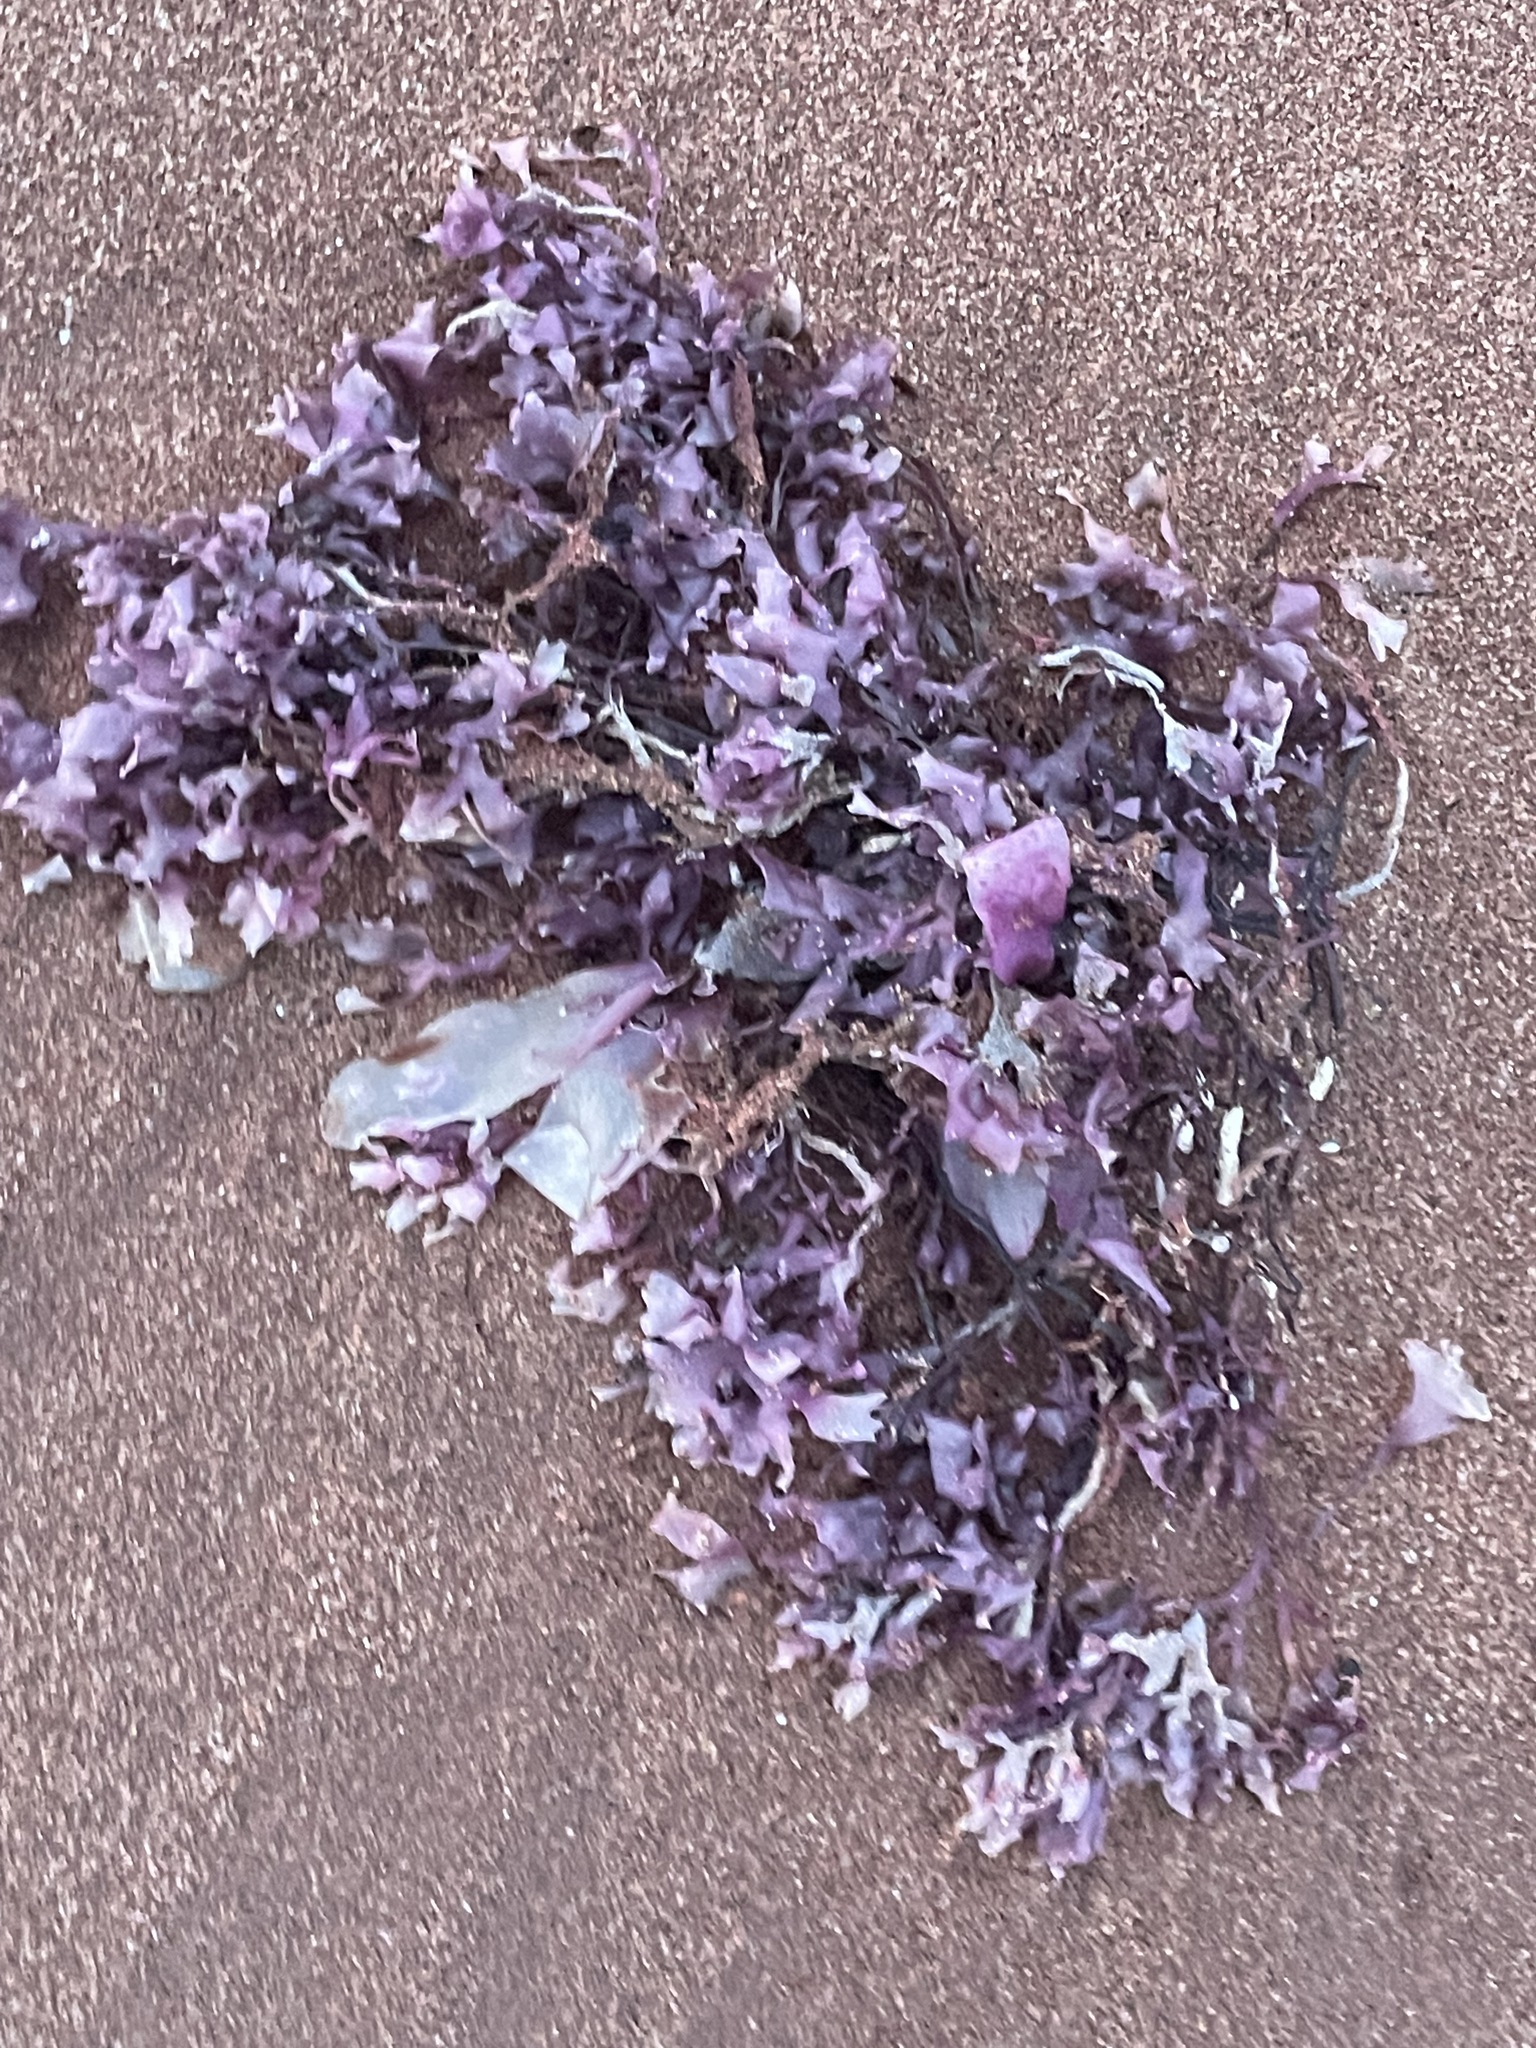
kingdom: Plantae
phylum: Rhodophyta
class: Florideophyceae
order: Gigartinales
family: Gigartinaceae
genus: Chondrus
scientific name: Chondrus crispus
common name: Carrageen
